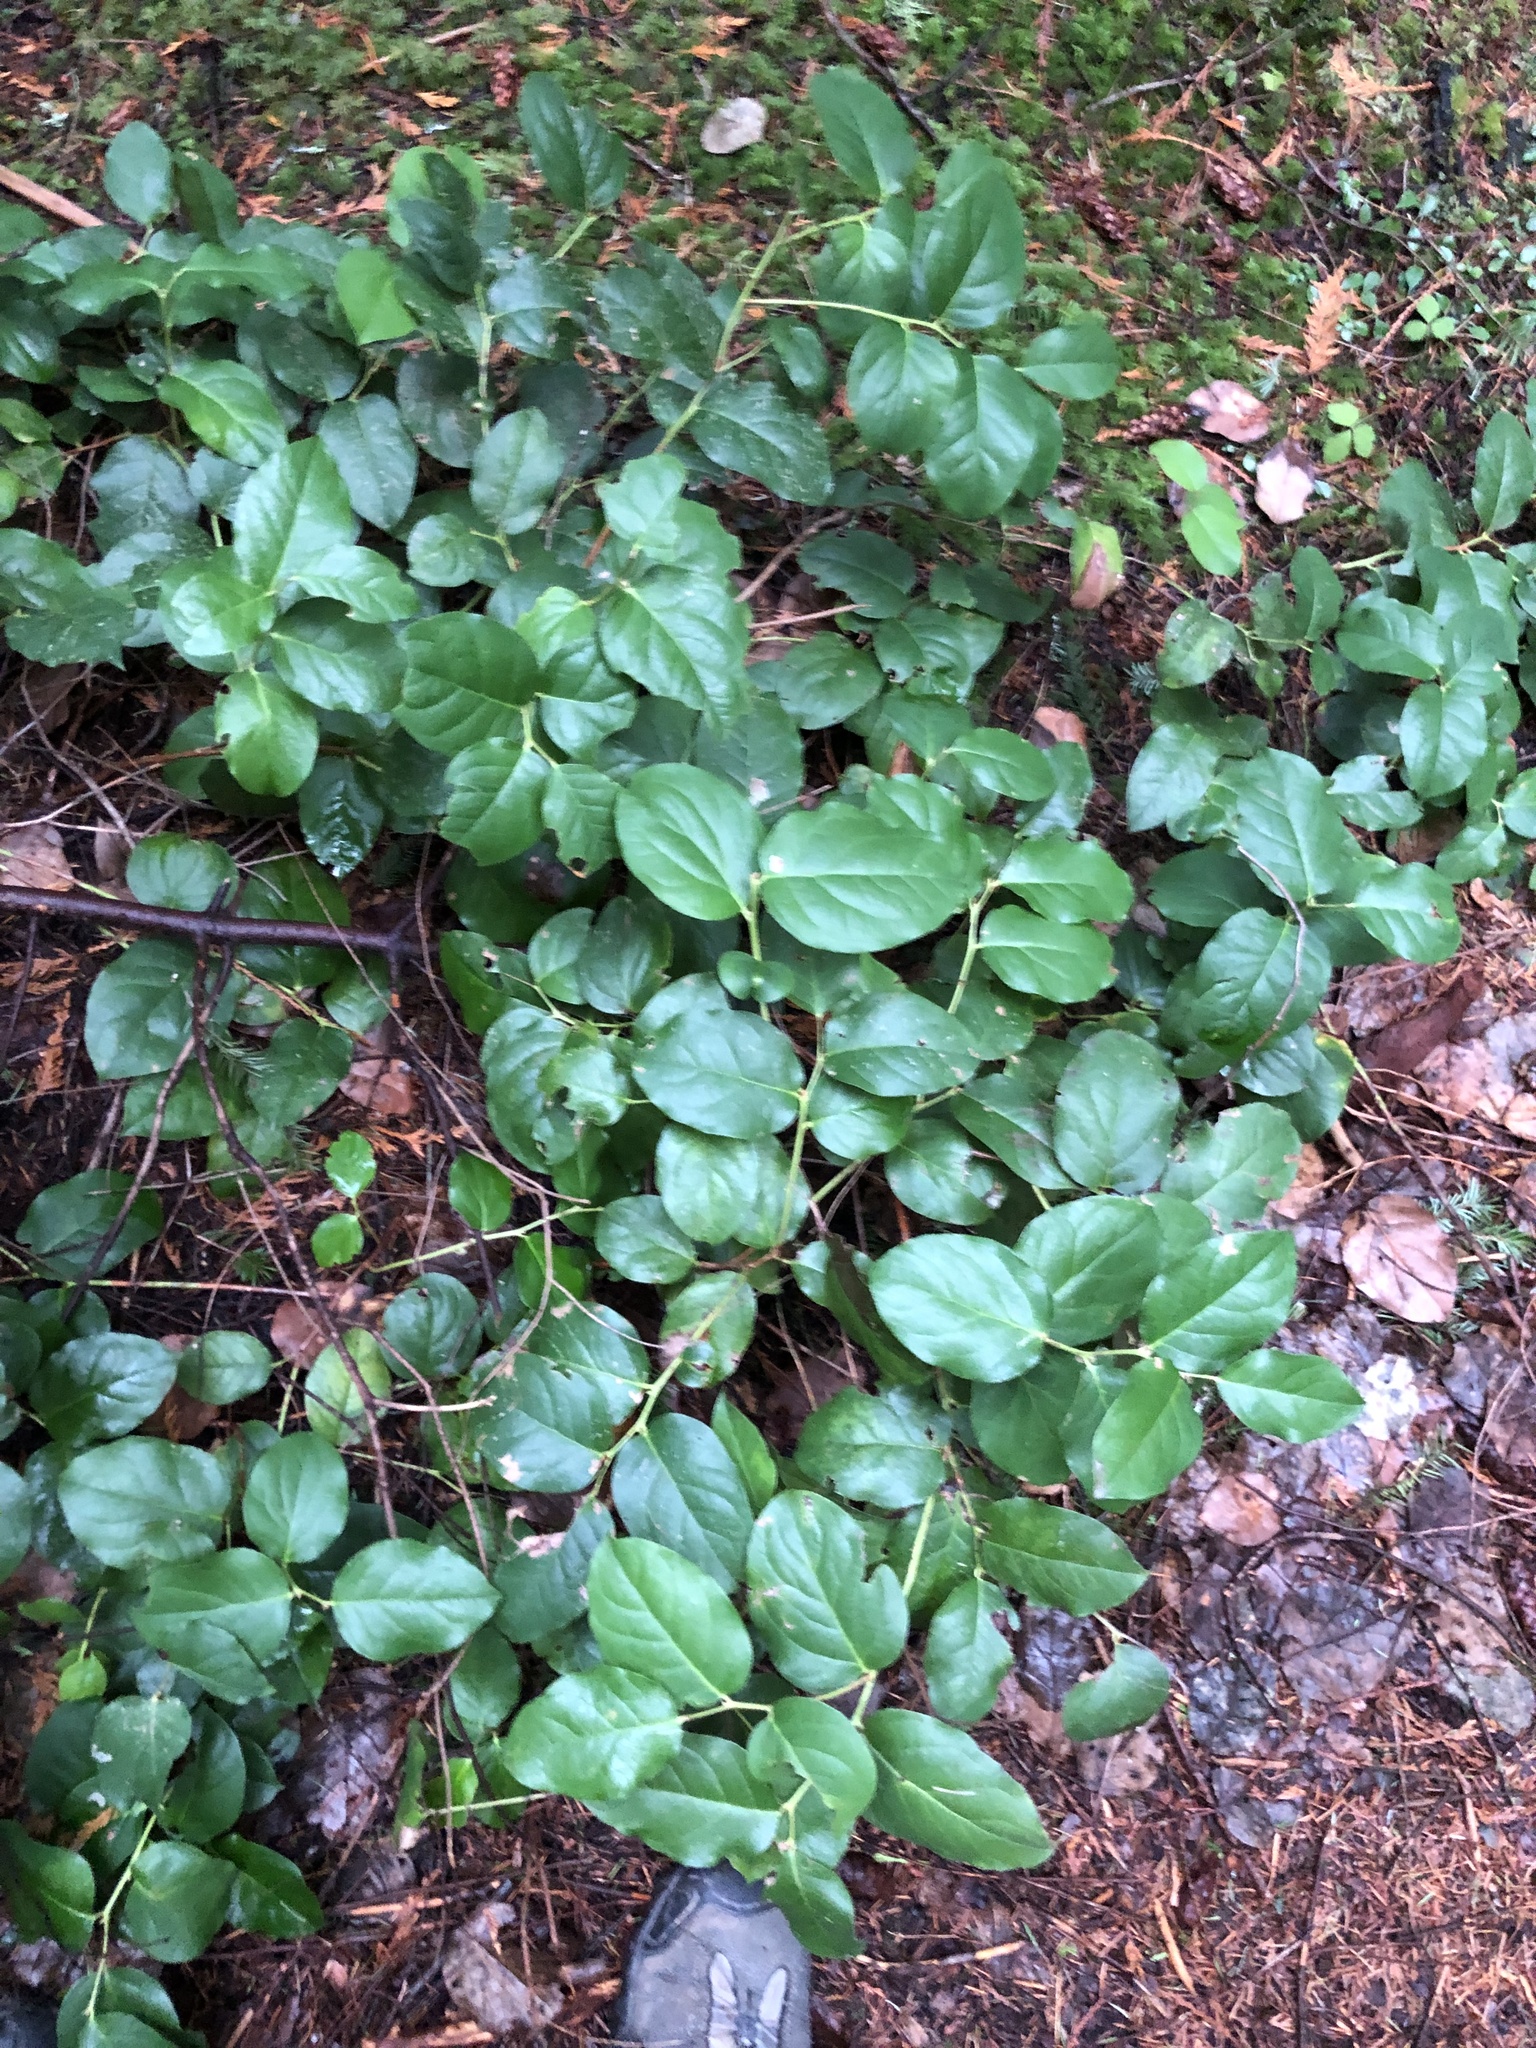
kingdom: Plantae
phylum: Tracheophyta
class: Magnoliopsida
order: Ericales
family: Ericaceae
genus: Gaultheria
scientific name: Gaultheria shallon
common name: Shallon
